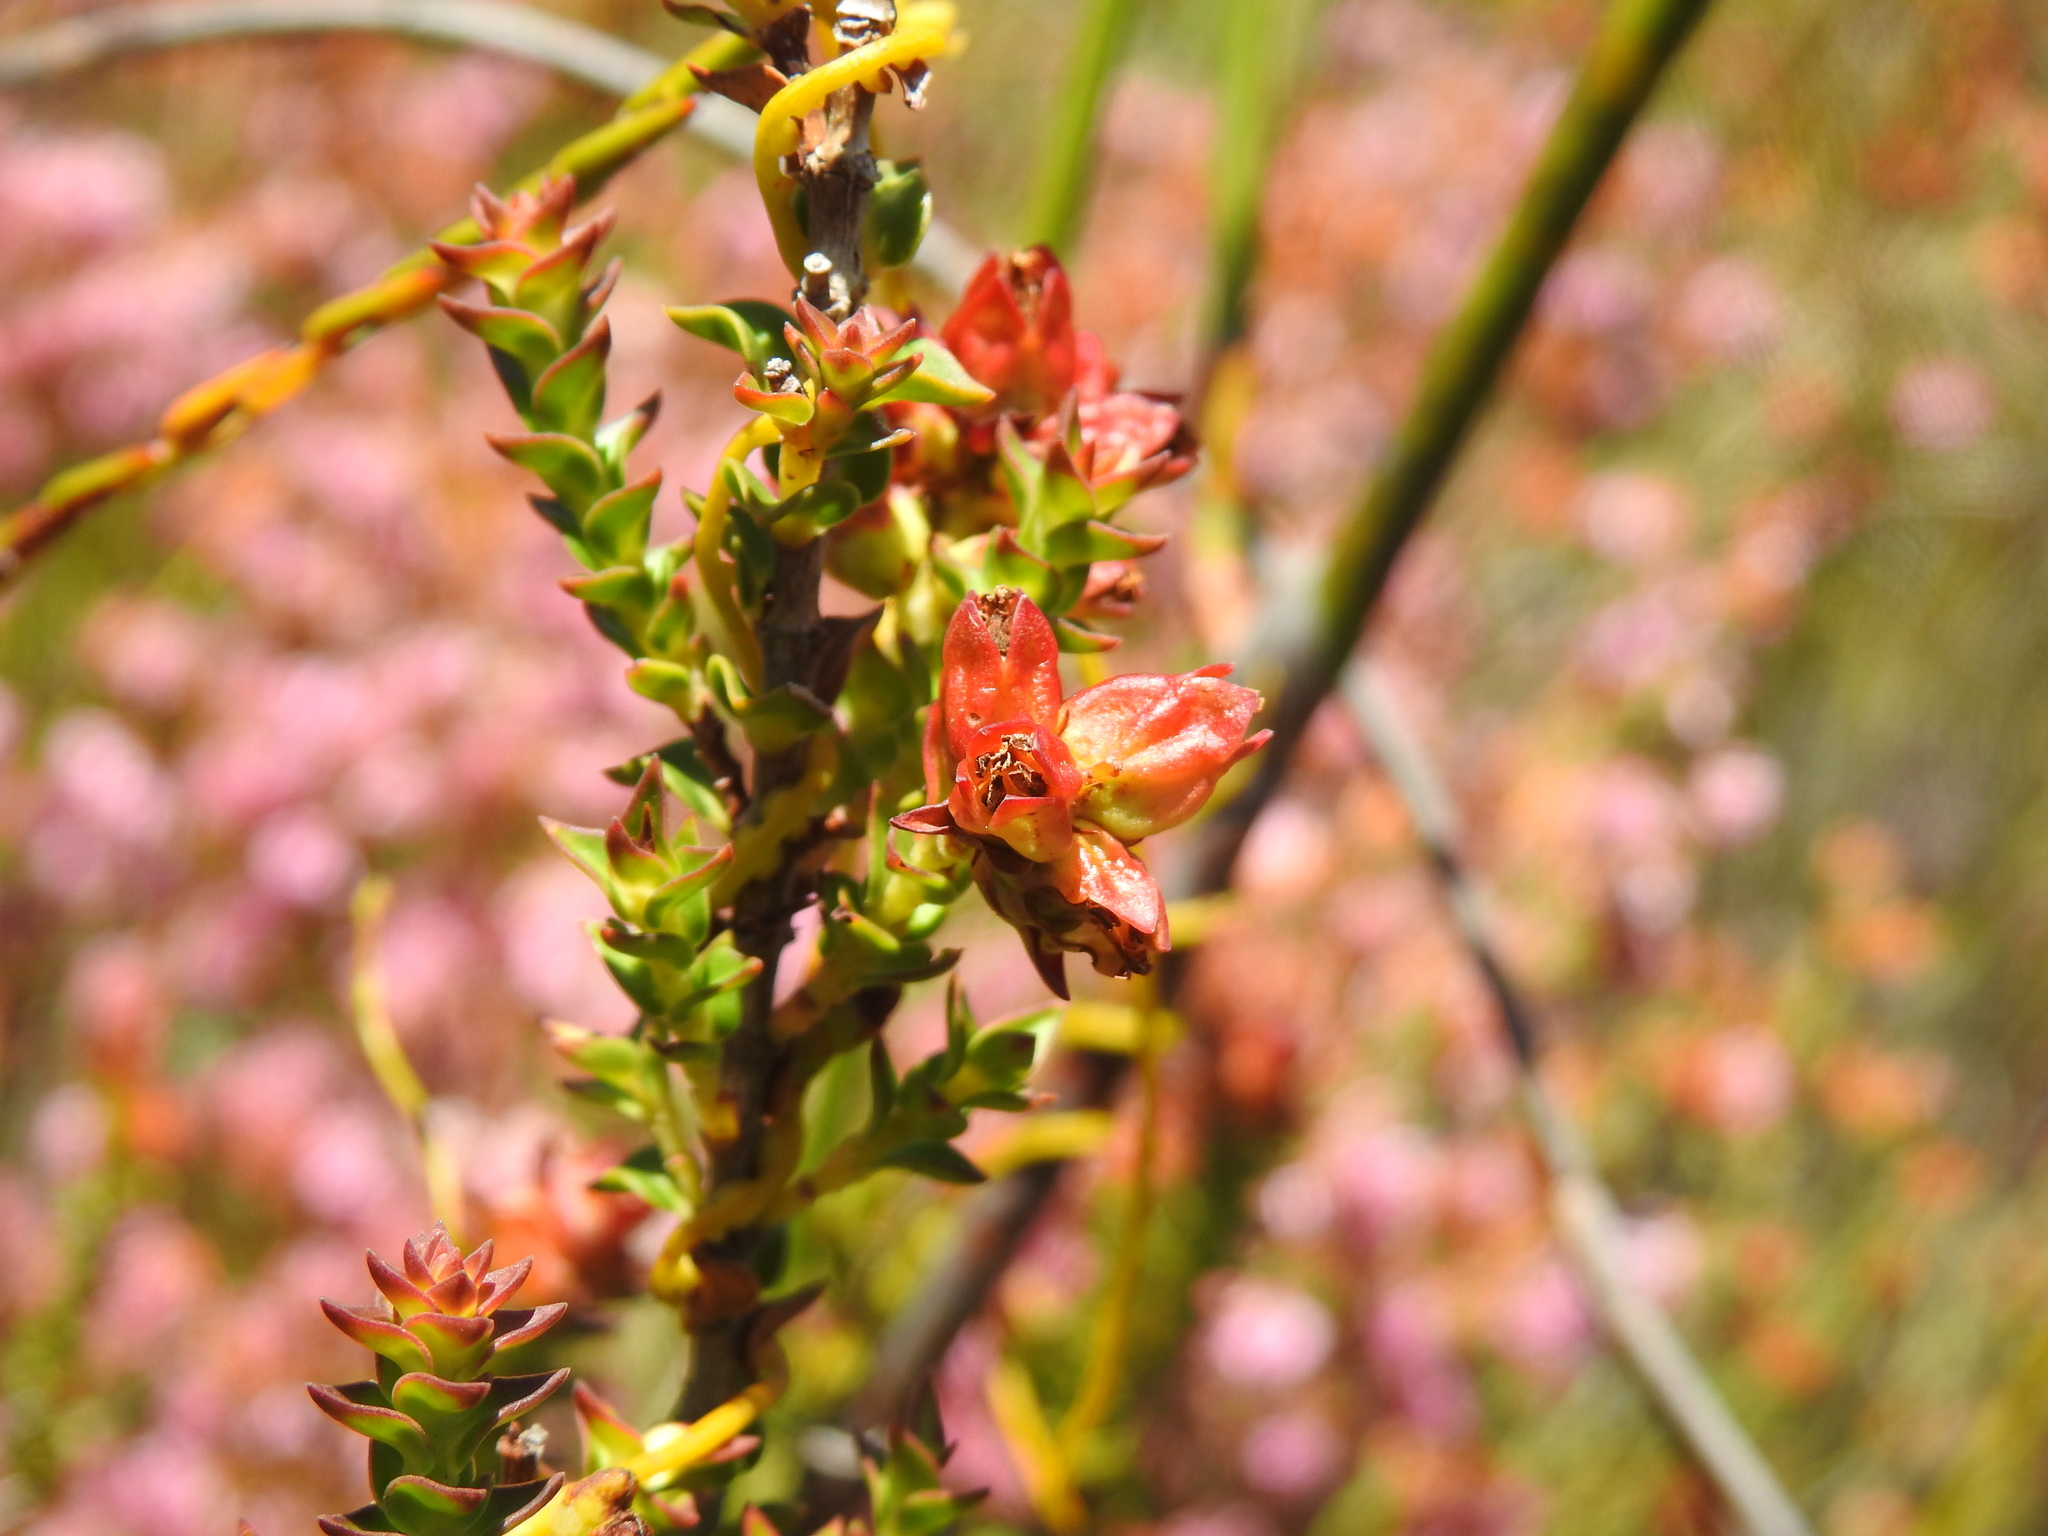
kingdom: Plantae
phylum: Tracheophyta
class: Magnoliopsida
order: Myrtales
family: Penaeaceae
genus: Penaea
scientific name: Penaea mucronata
